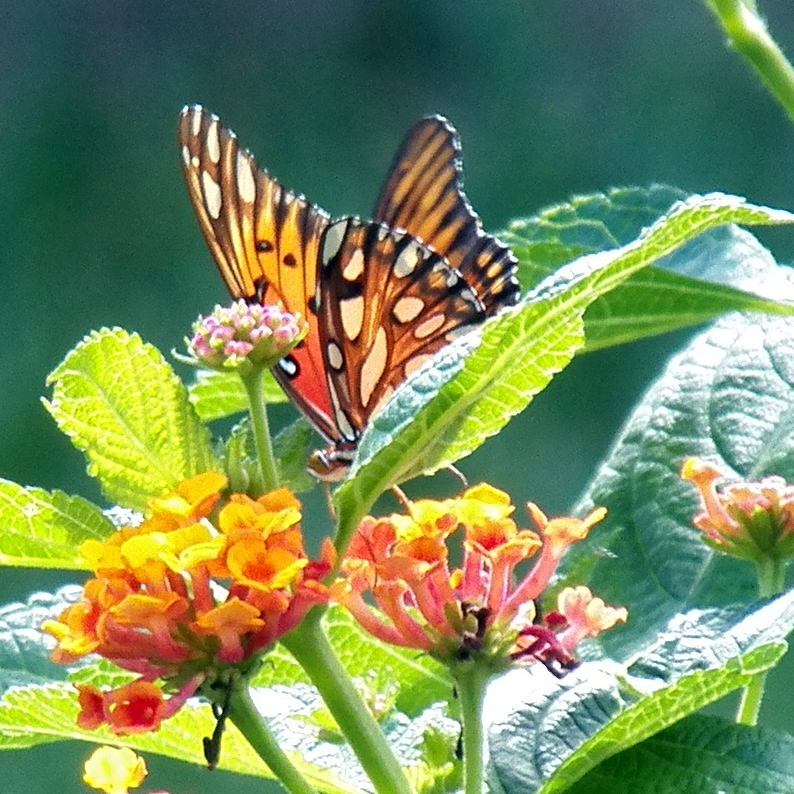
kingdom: Animalia
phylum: Arthropoda
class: Insecta
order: Lepidoptera
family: Nymphalidae
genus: Dione
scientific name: Dione vanillae
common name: Gulf fritillary
